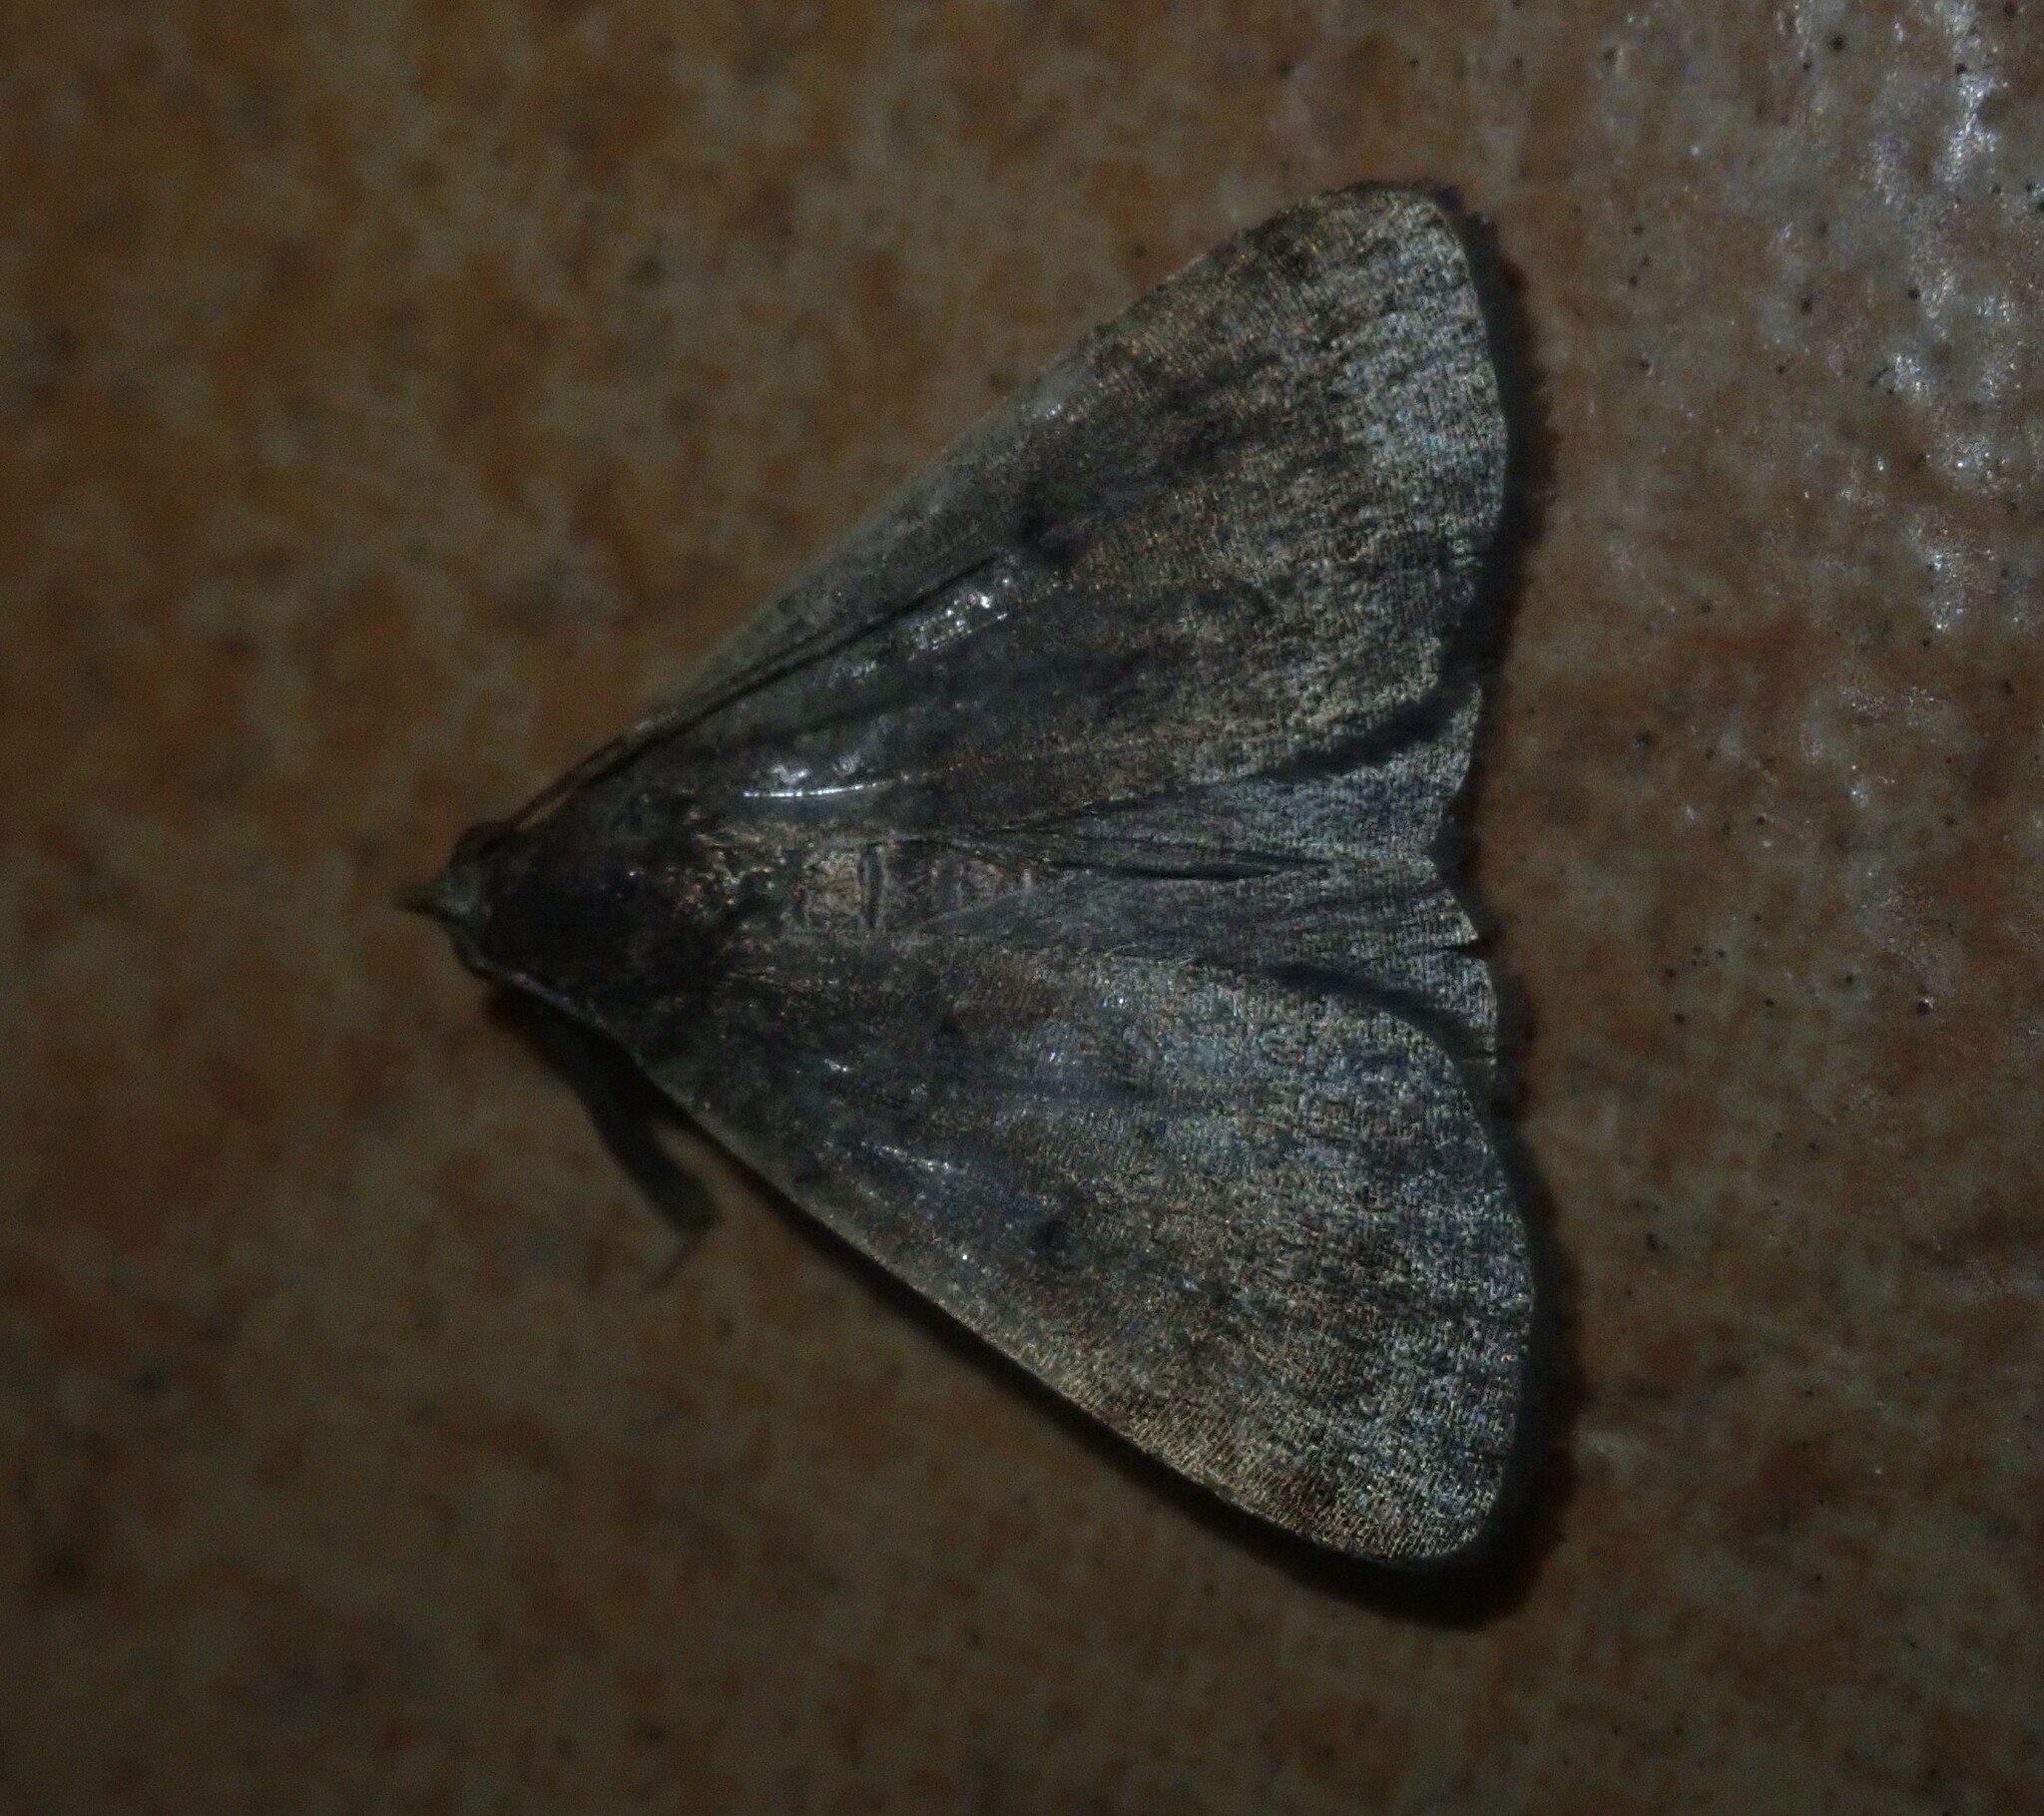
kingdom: Animalia
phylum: Arthropoda
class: Insecta
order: Lepidoptera
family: Erebidae
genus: Nodaria
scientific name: Nodaria nodosalis
